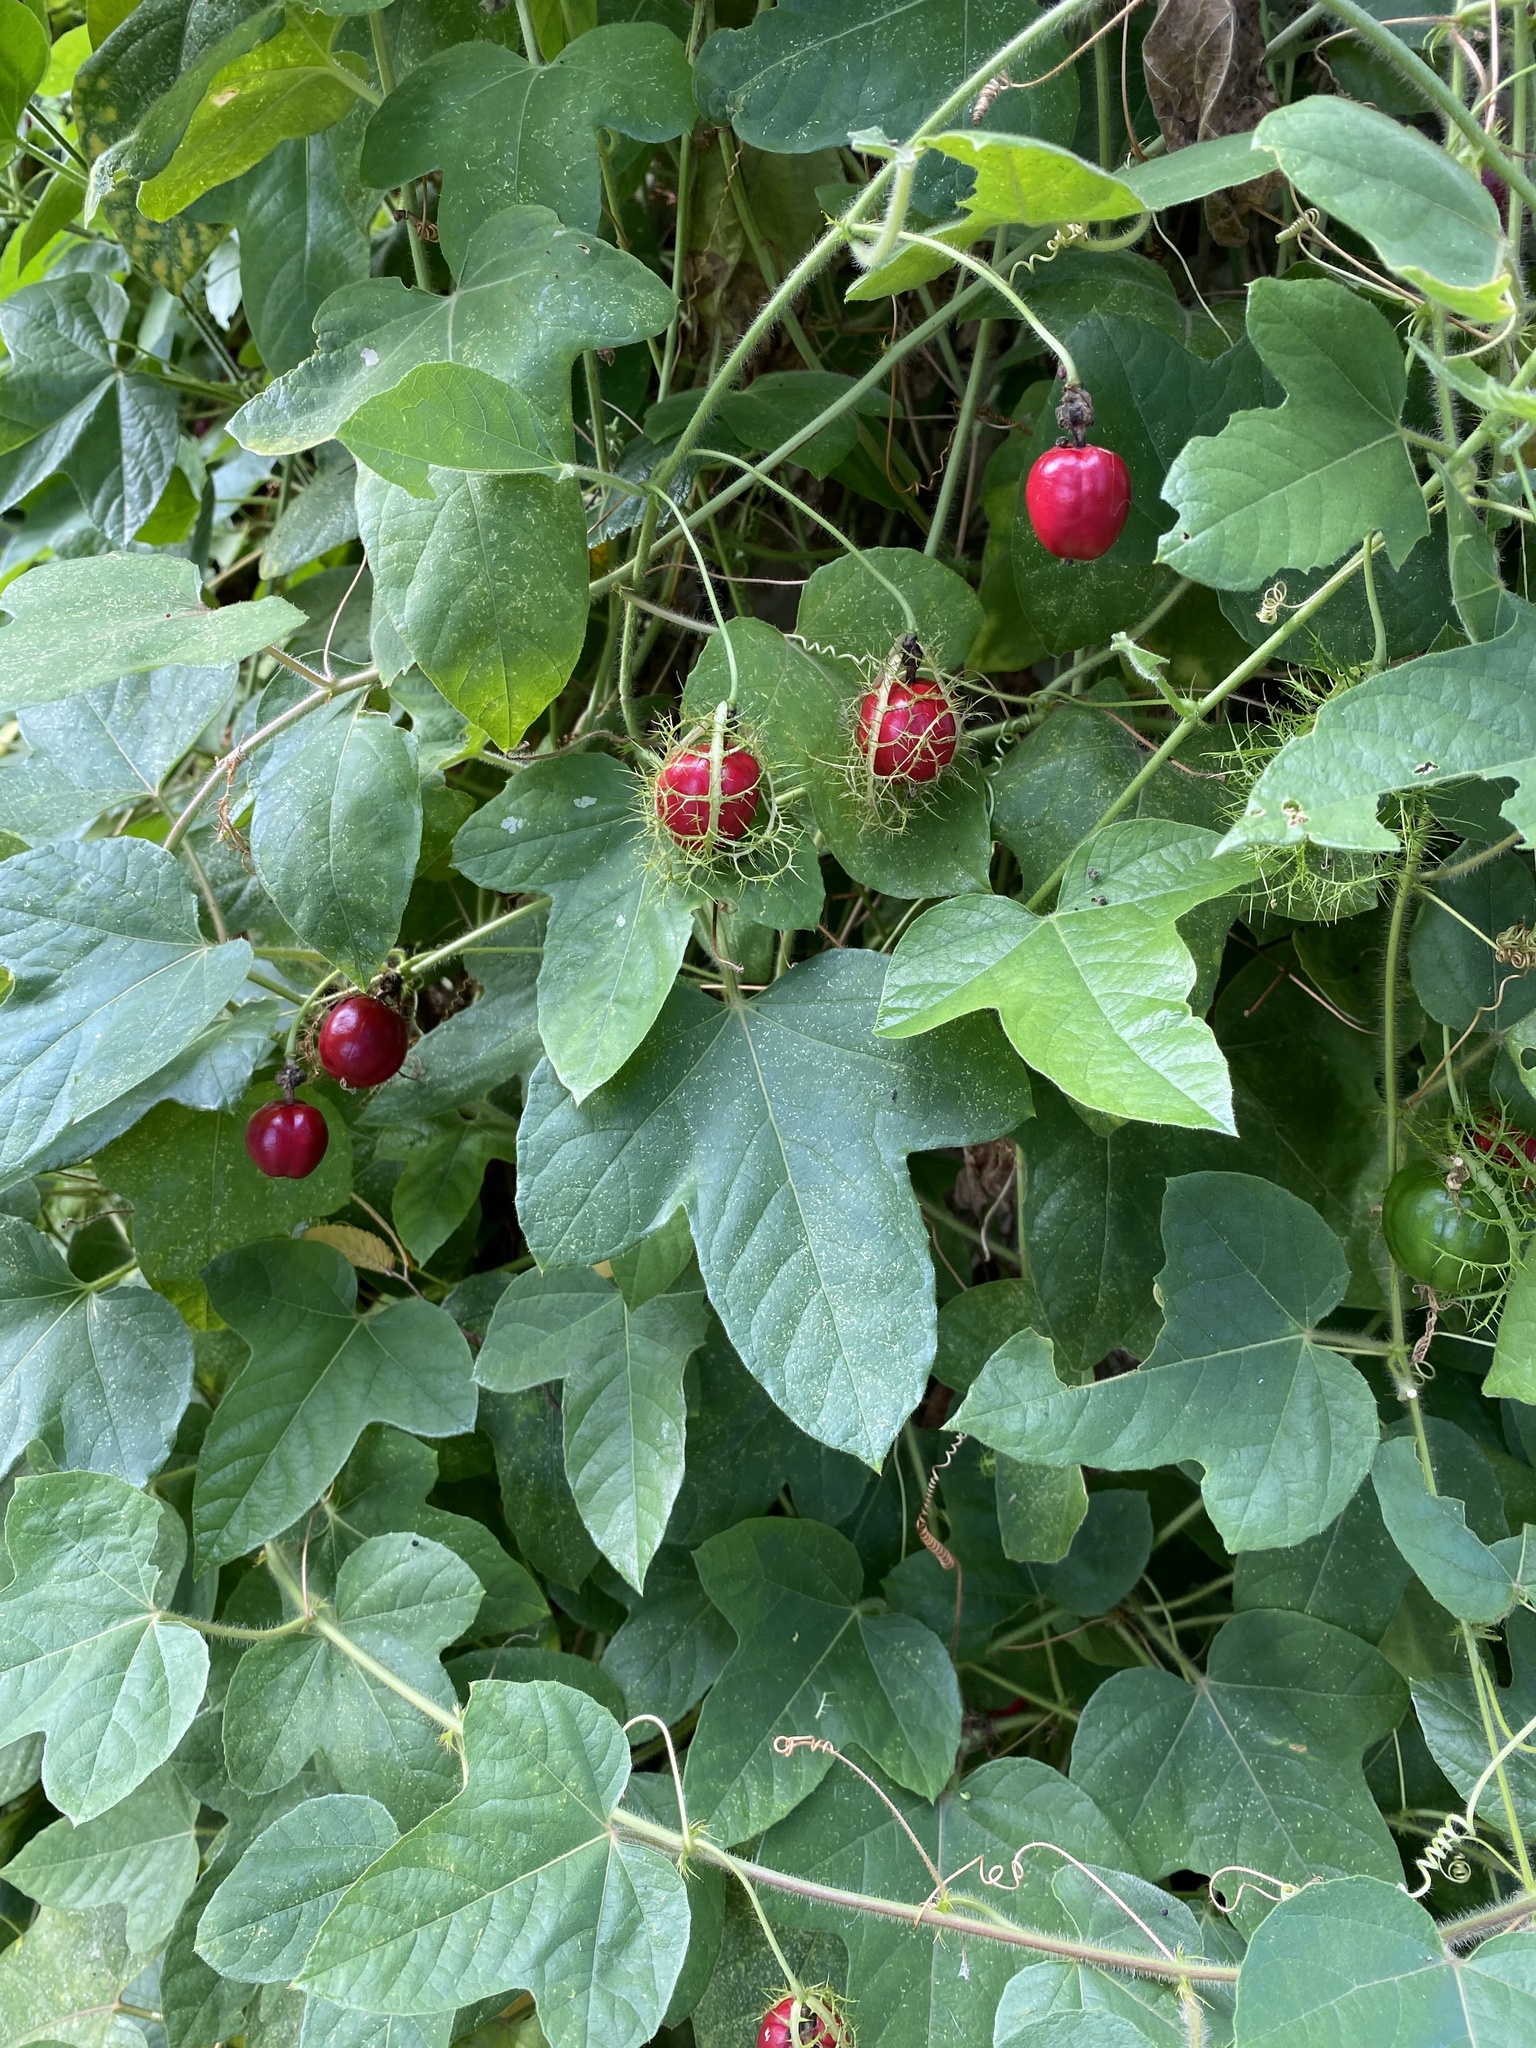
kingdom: Plantae
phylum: Tracheophyta
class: Magnoliopsida
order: Malpighiales
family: Passifloraceae
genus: Passiflora
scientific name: Passiflora
